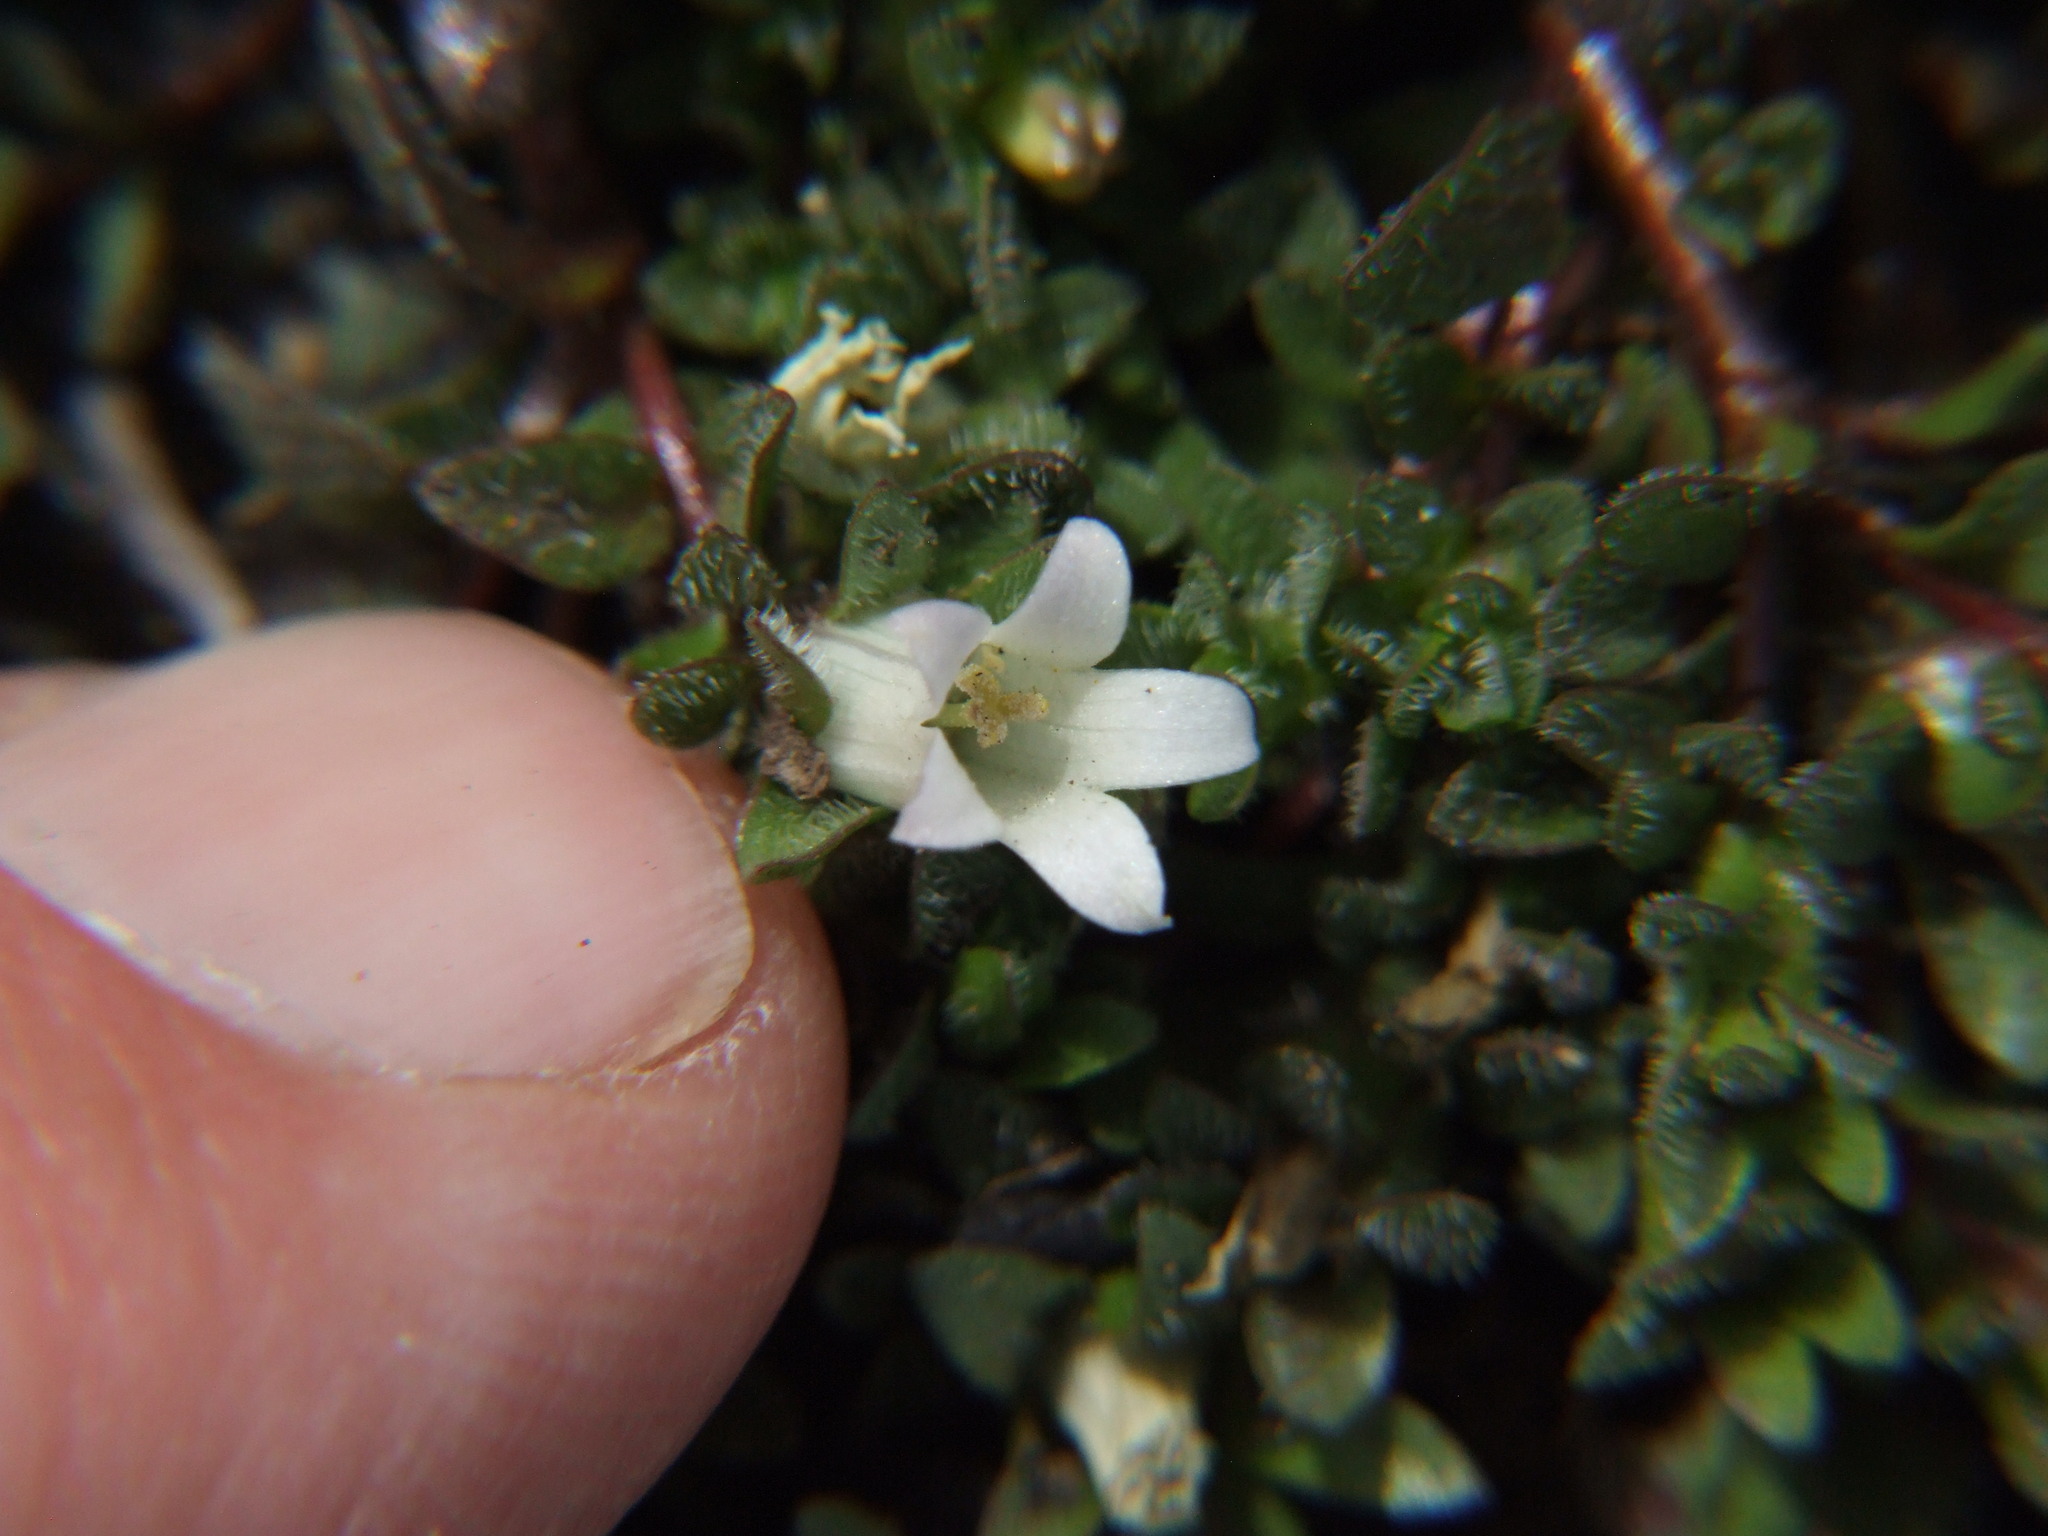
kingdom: Plantae
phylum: Tracheophyta
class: Magnoliopsida
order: Asterales
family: Campanulaceae
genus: Wahlenbergia
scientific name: Wahlenbergia peruviana
